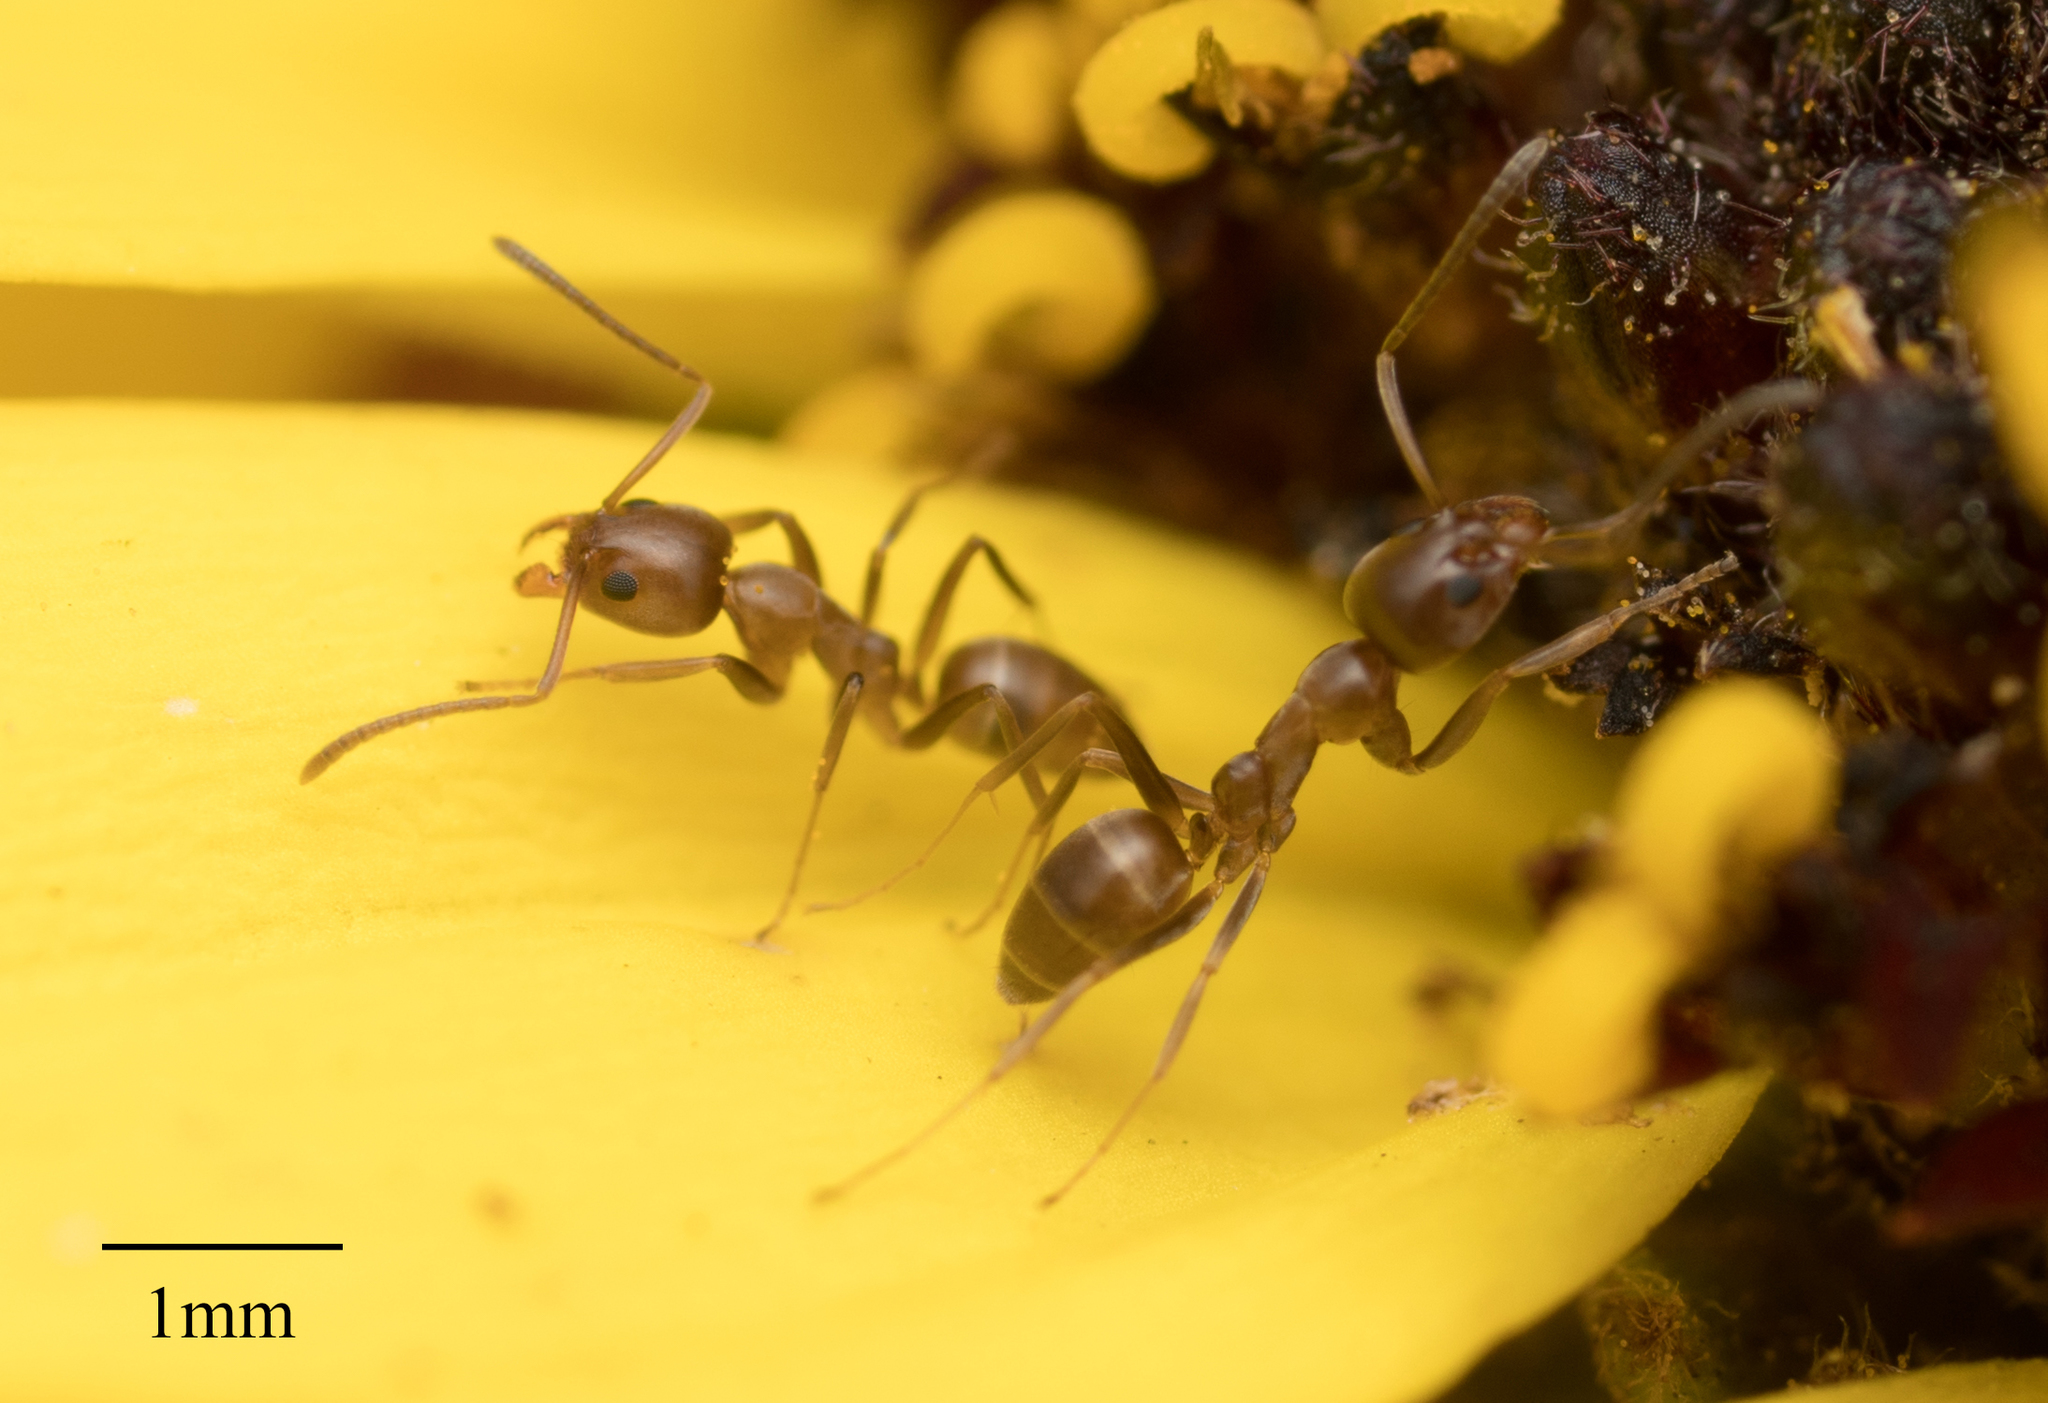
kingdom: Animalia
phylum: Arthropoda
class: Insecta
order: Hymenoptera
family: Formicidae
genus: Linepithema
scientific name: Linepithema humile
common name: Argentine ant
